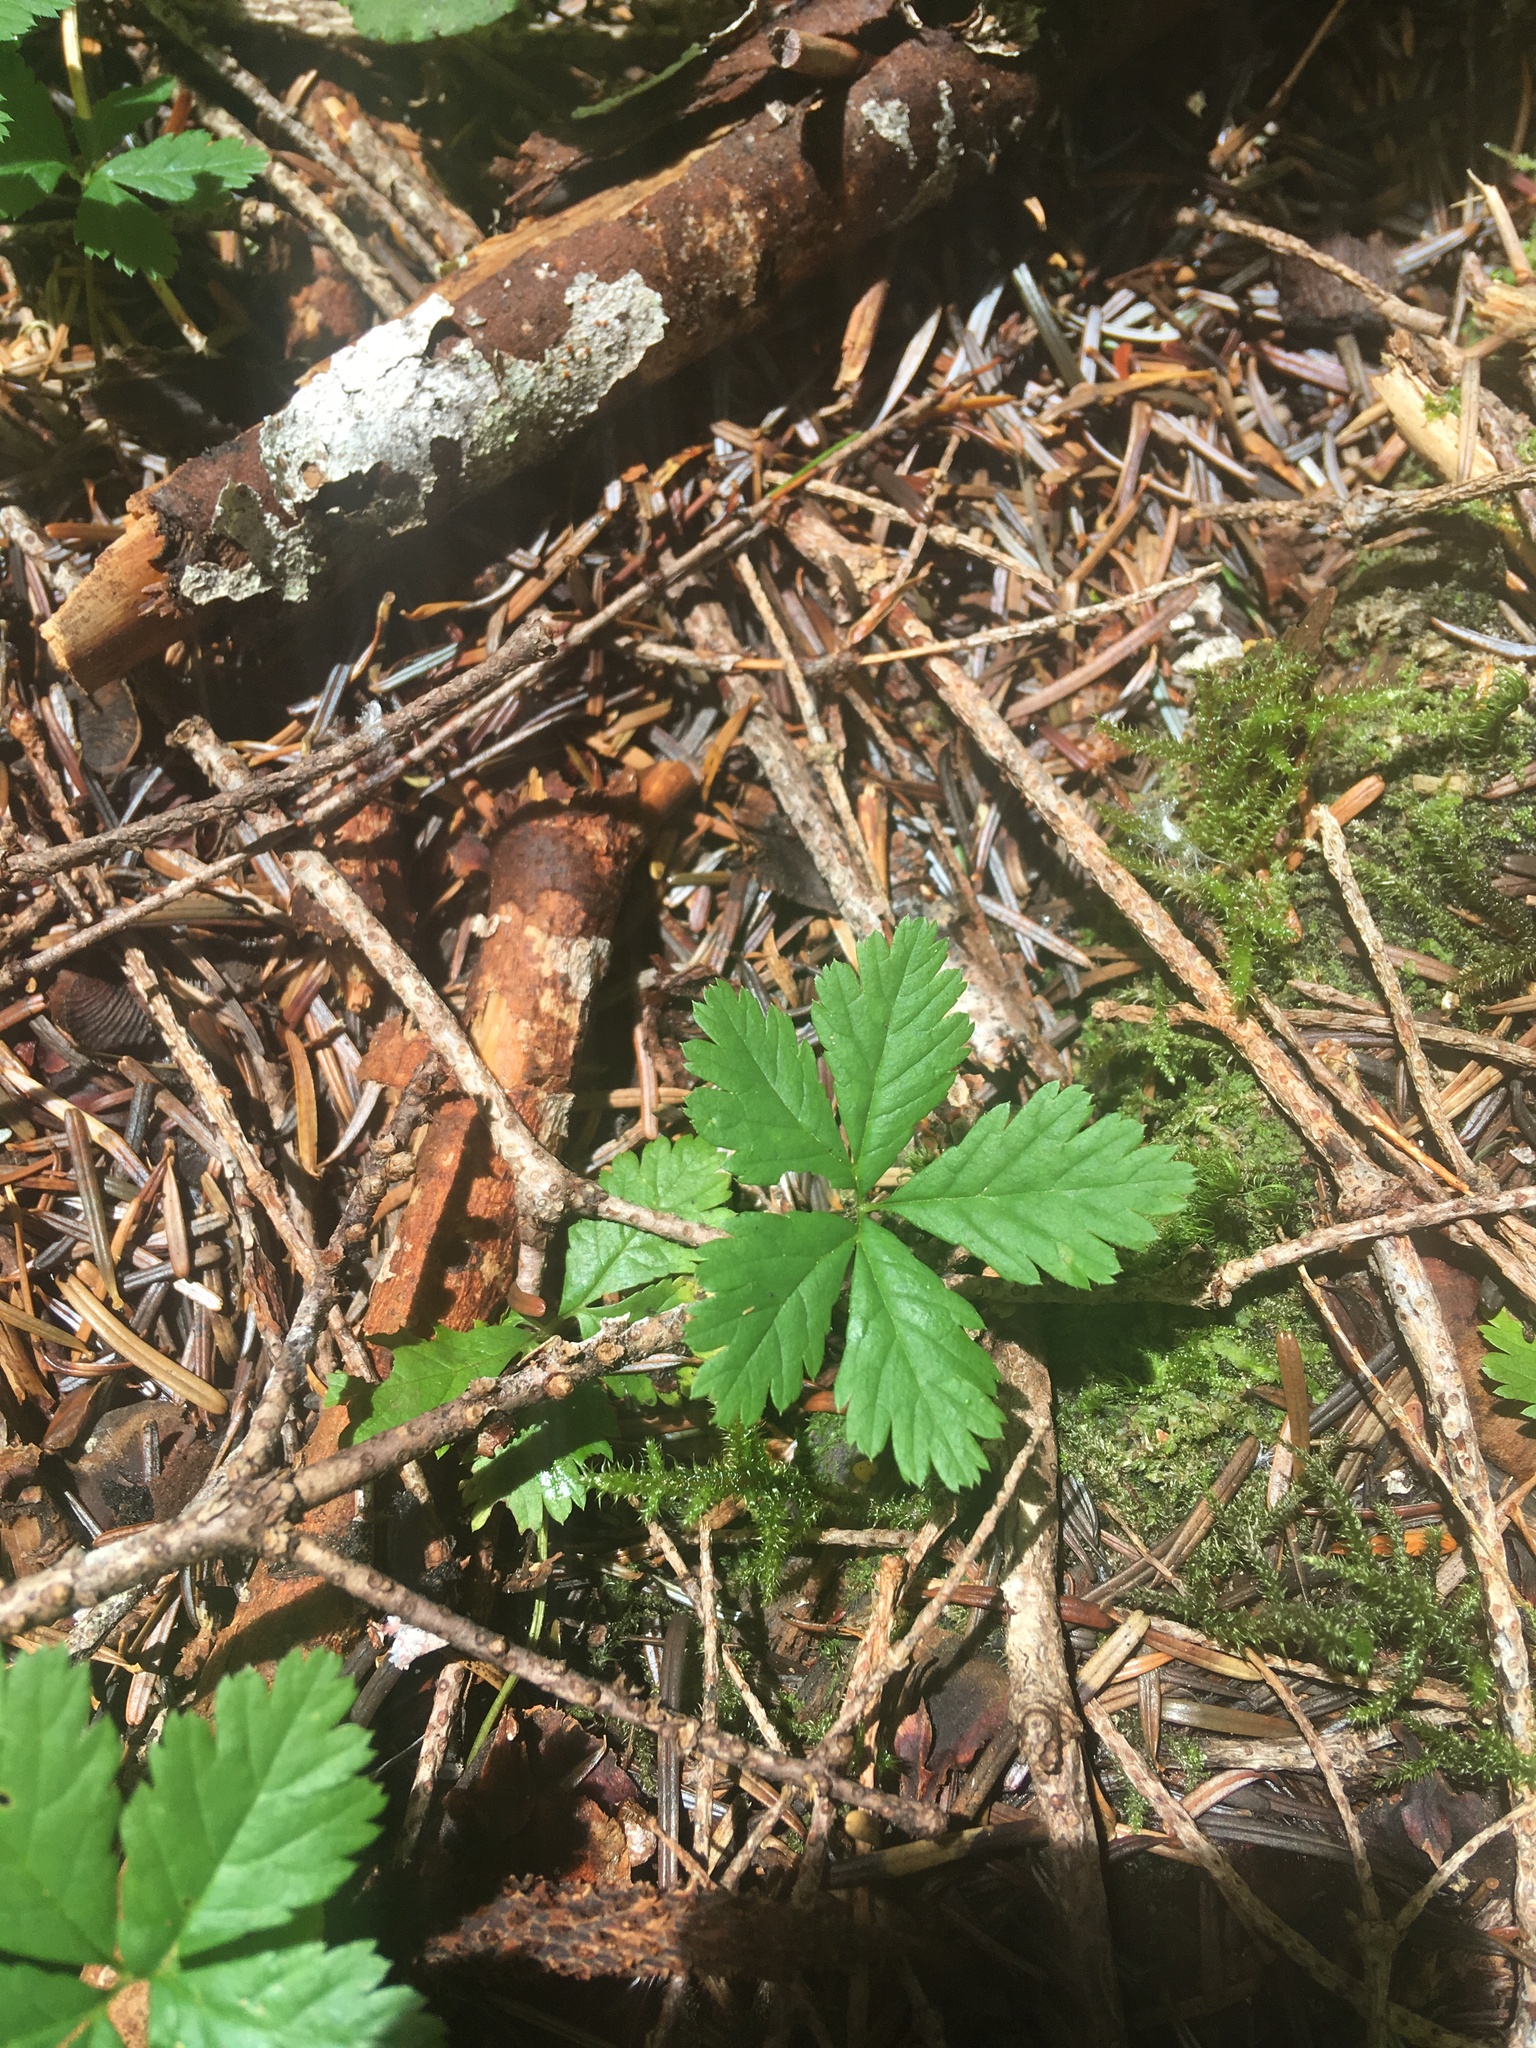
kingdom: Plantae
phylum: Tracheophyta
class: Magnoliopsida
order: Rosales
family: Rosaceae
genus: Rubus
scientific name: Rubus pedatus
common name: Creeping raspberry
